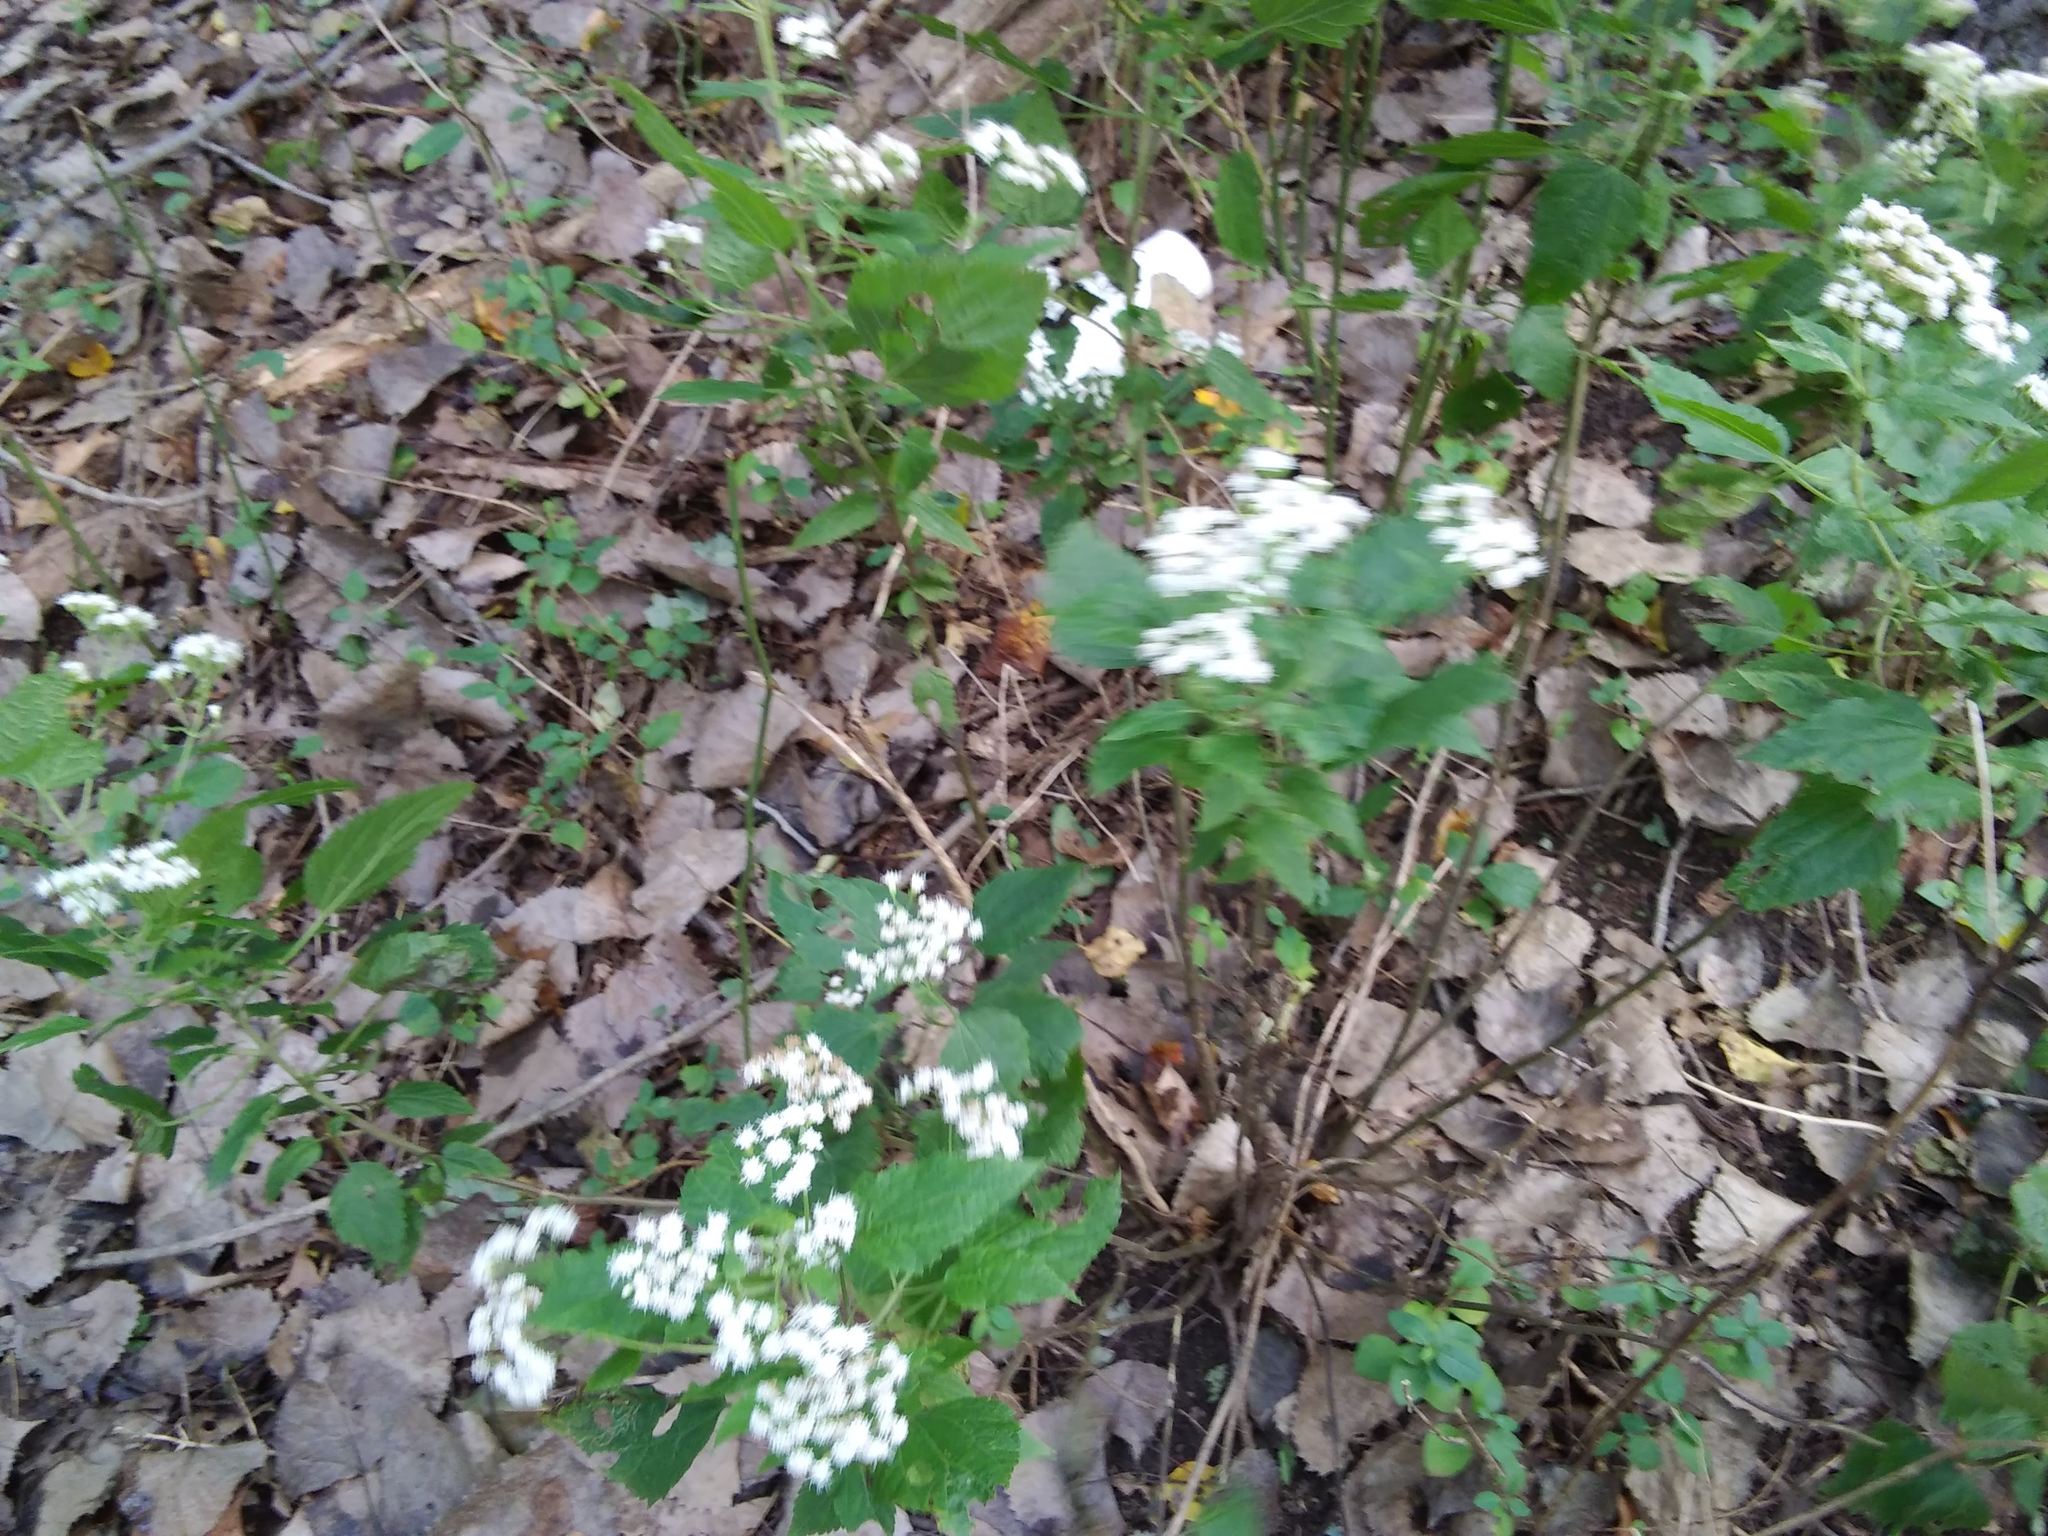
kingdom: Plantae
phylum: Tracheophyta
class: Magnoliopsida
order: Asterales
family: Asteraceae
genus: Ageratina
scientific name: Ageratina altissima
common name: White snakeroot
